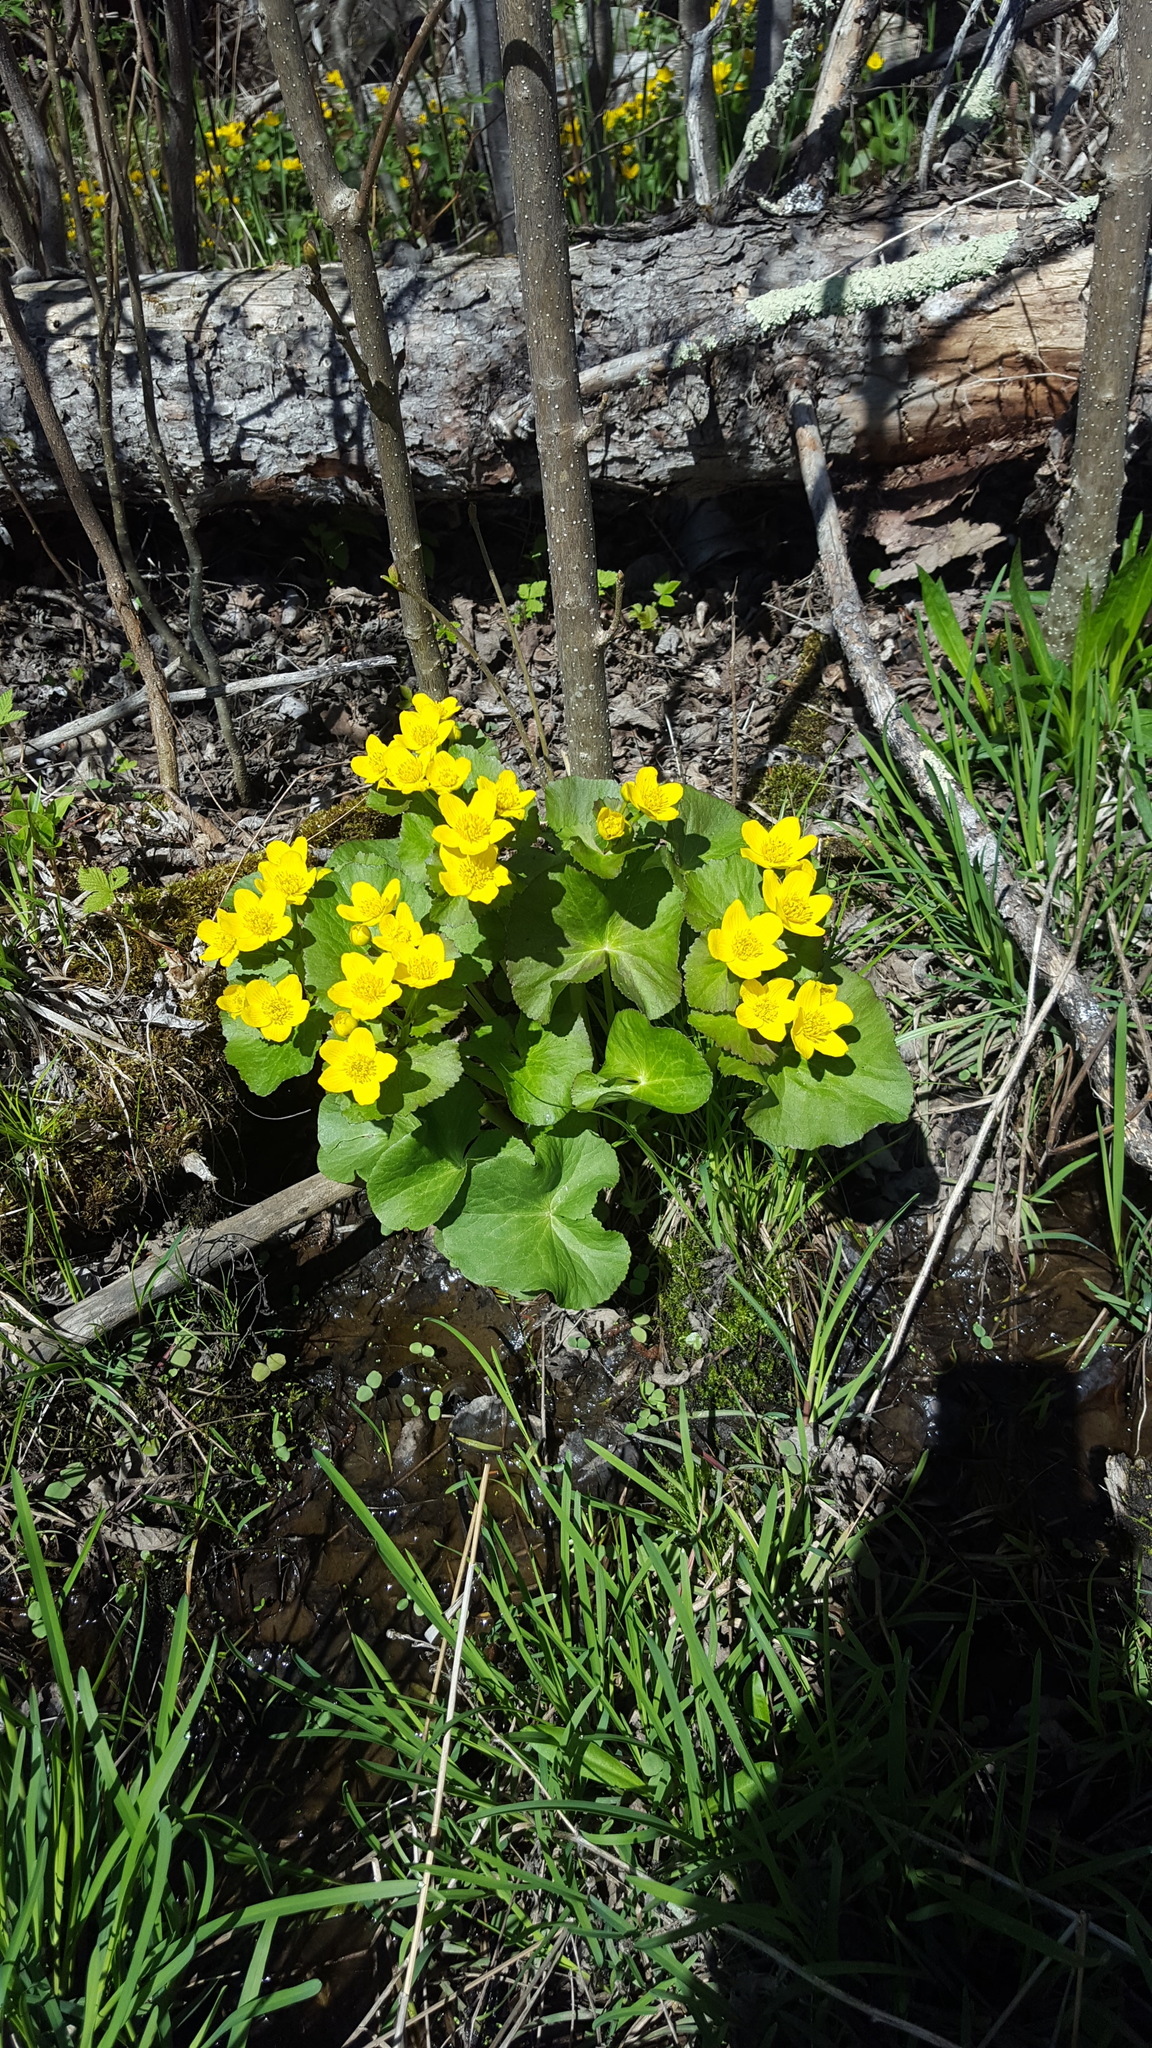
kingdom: Plantae
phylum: Tracheophyta
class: Magnoliopsida
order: Ranunculales
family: Ranunculaceae
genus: Caltha
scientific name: Caltha palustris
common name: Marsh marigold
